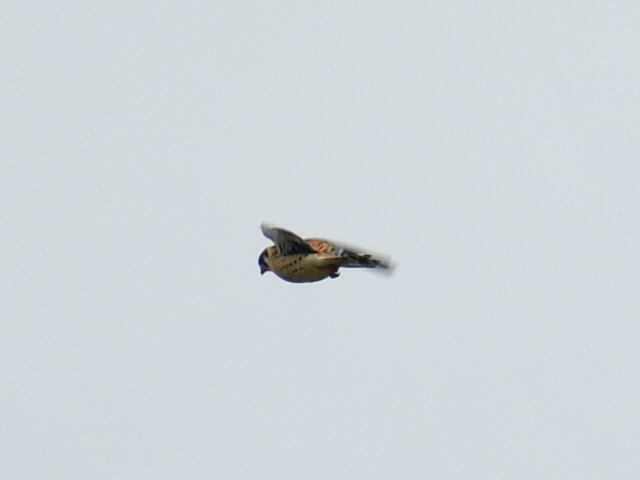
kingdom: Animalia
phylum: Chordata
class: Aves
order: Falconiformes
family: Falconidae
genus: Falco
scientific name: Falco sparverius
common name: American kestrel
